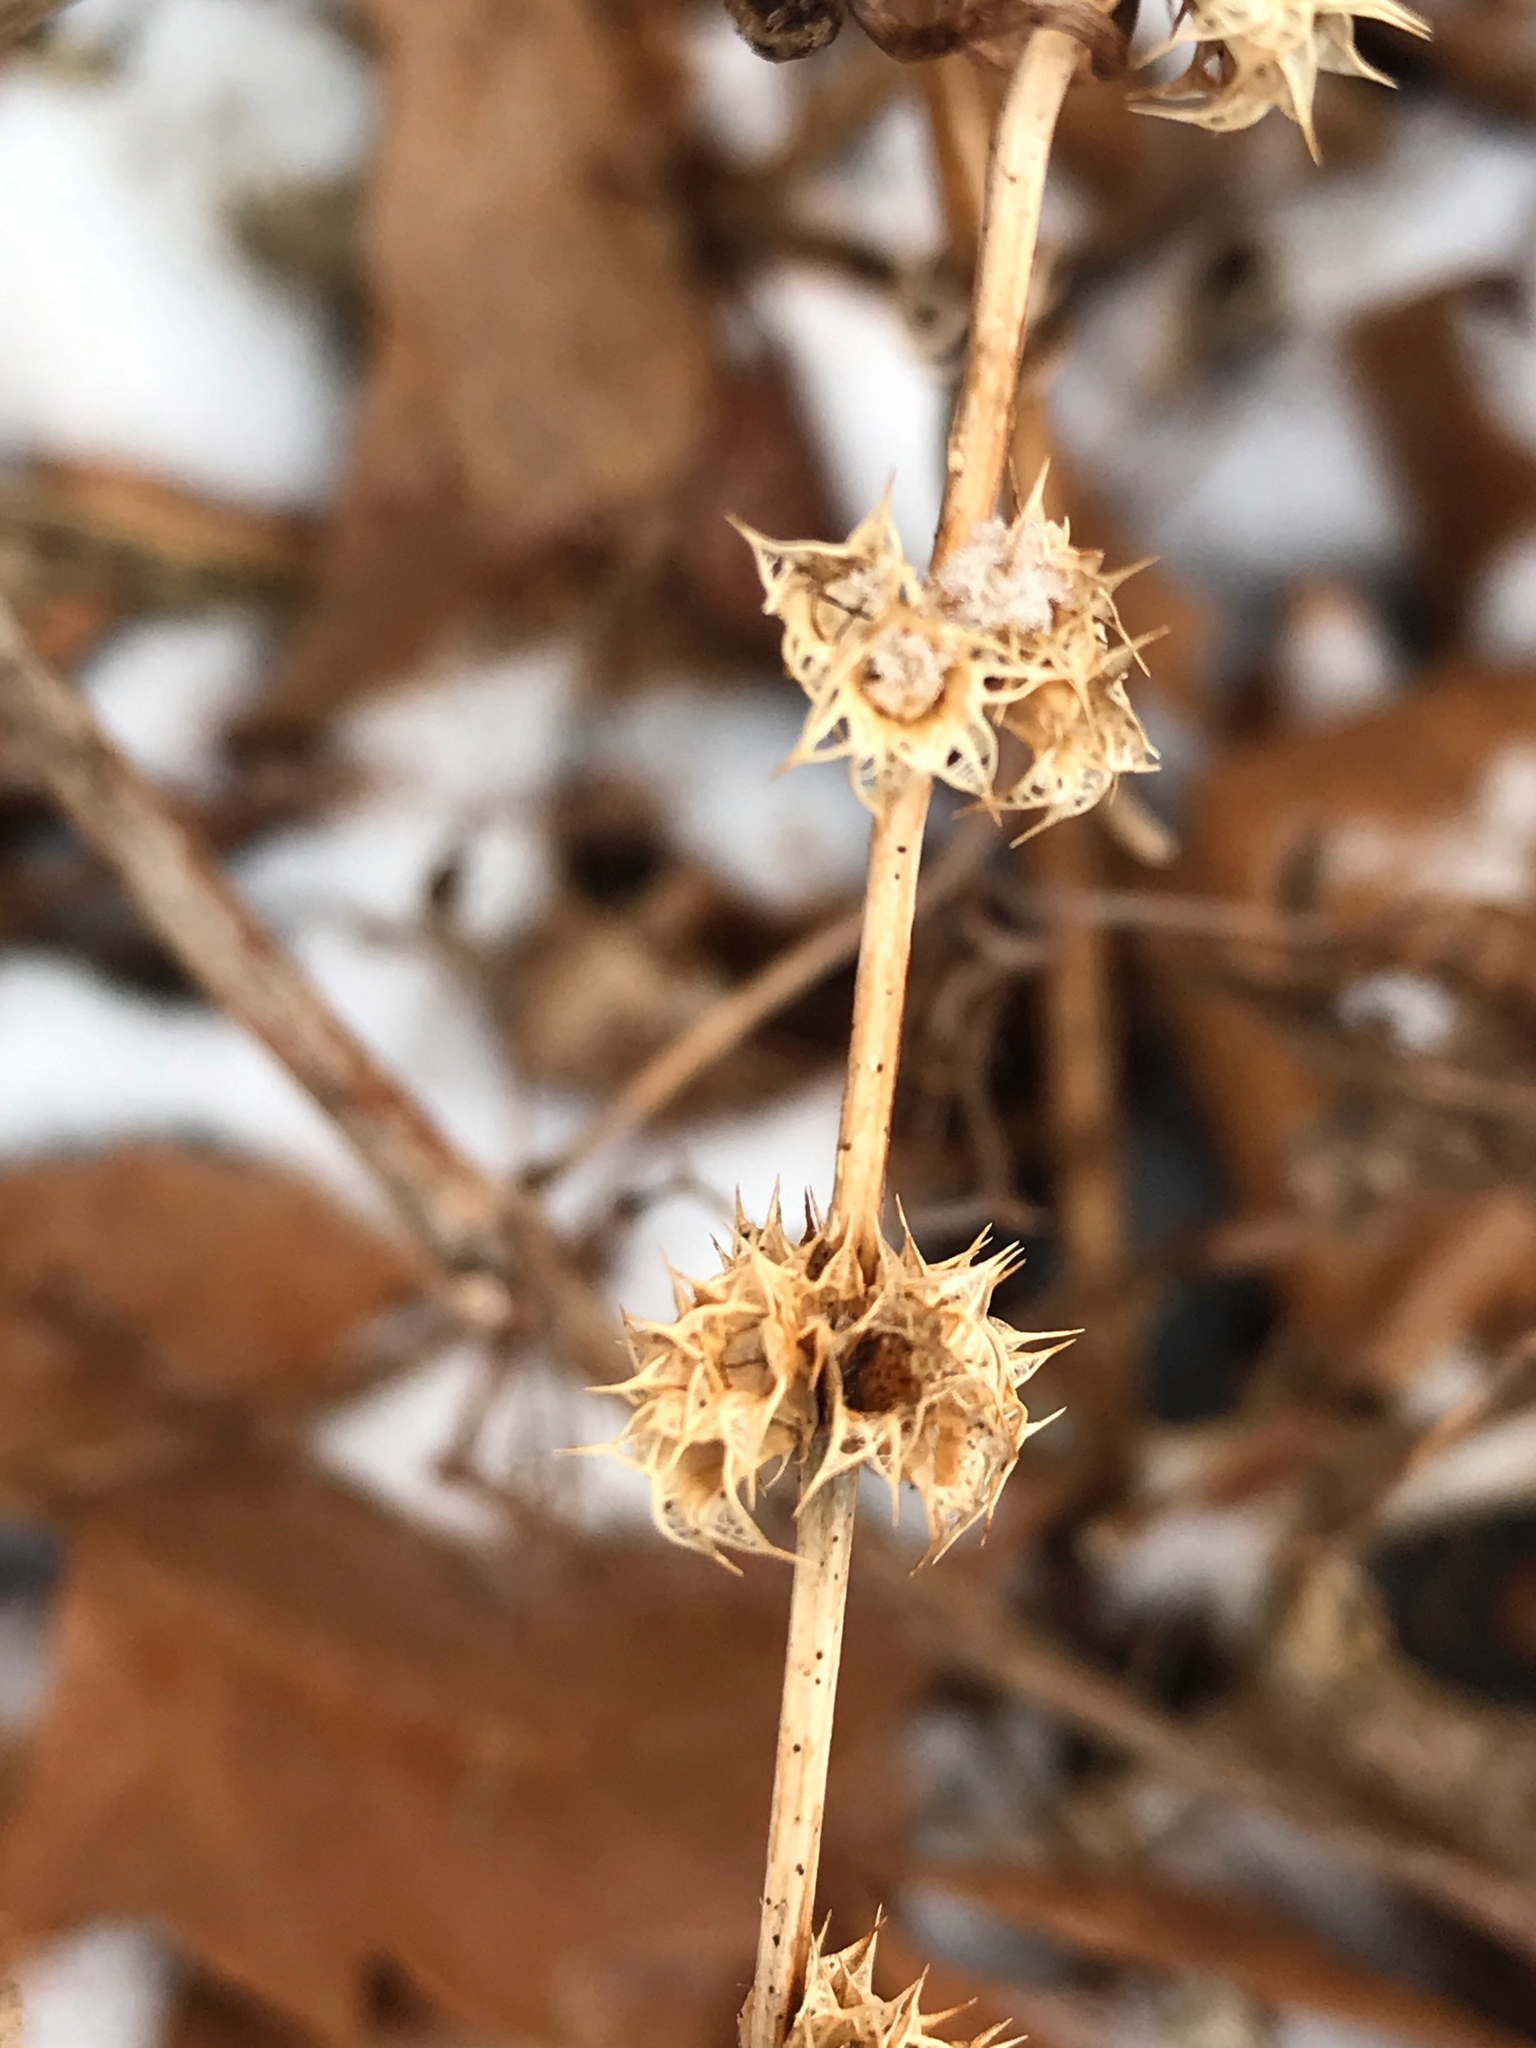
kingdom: Plantae
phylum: Tracheophyta
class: Magnoliopsida
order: Lamiales
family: Lamiaceae
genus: Leonurus
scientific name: Leonurus cardiaca
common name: Motherwort
